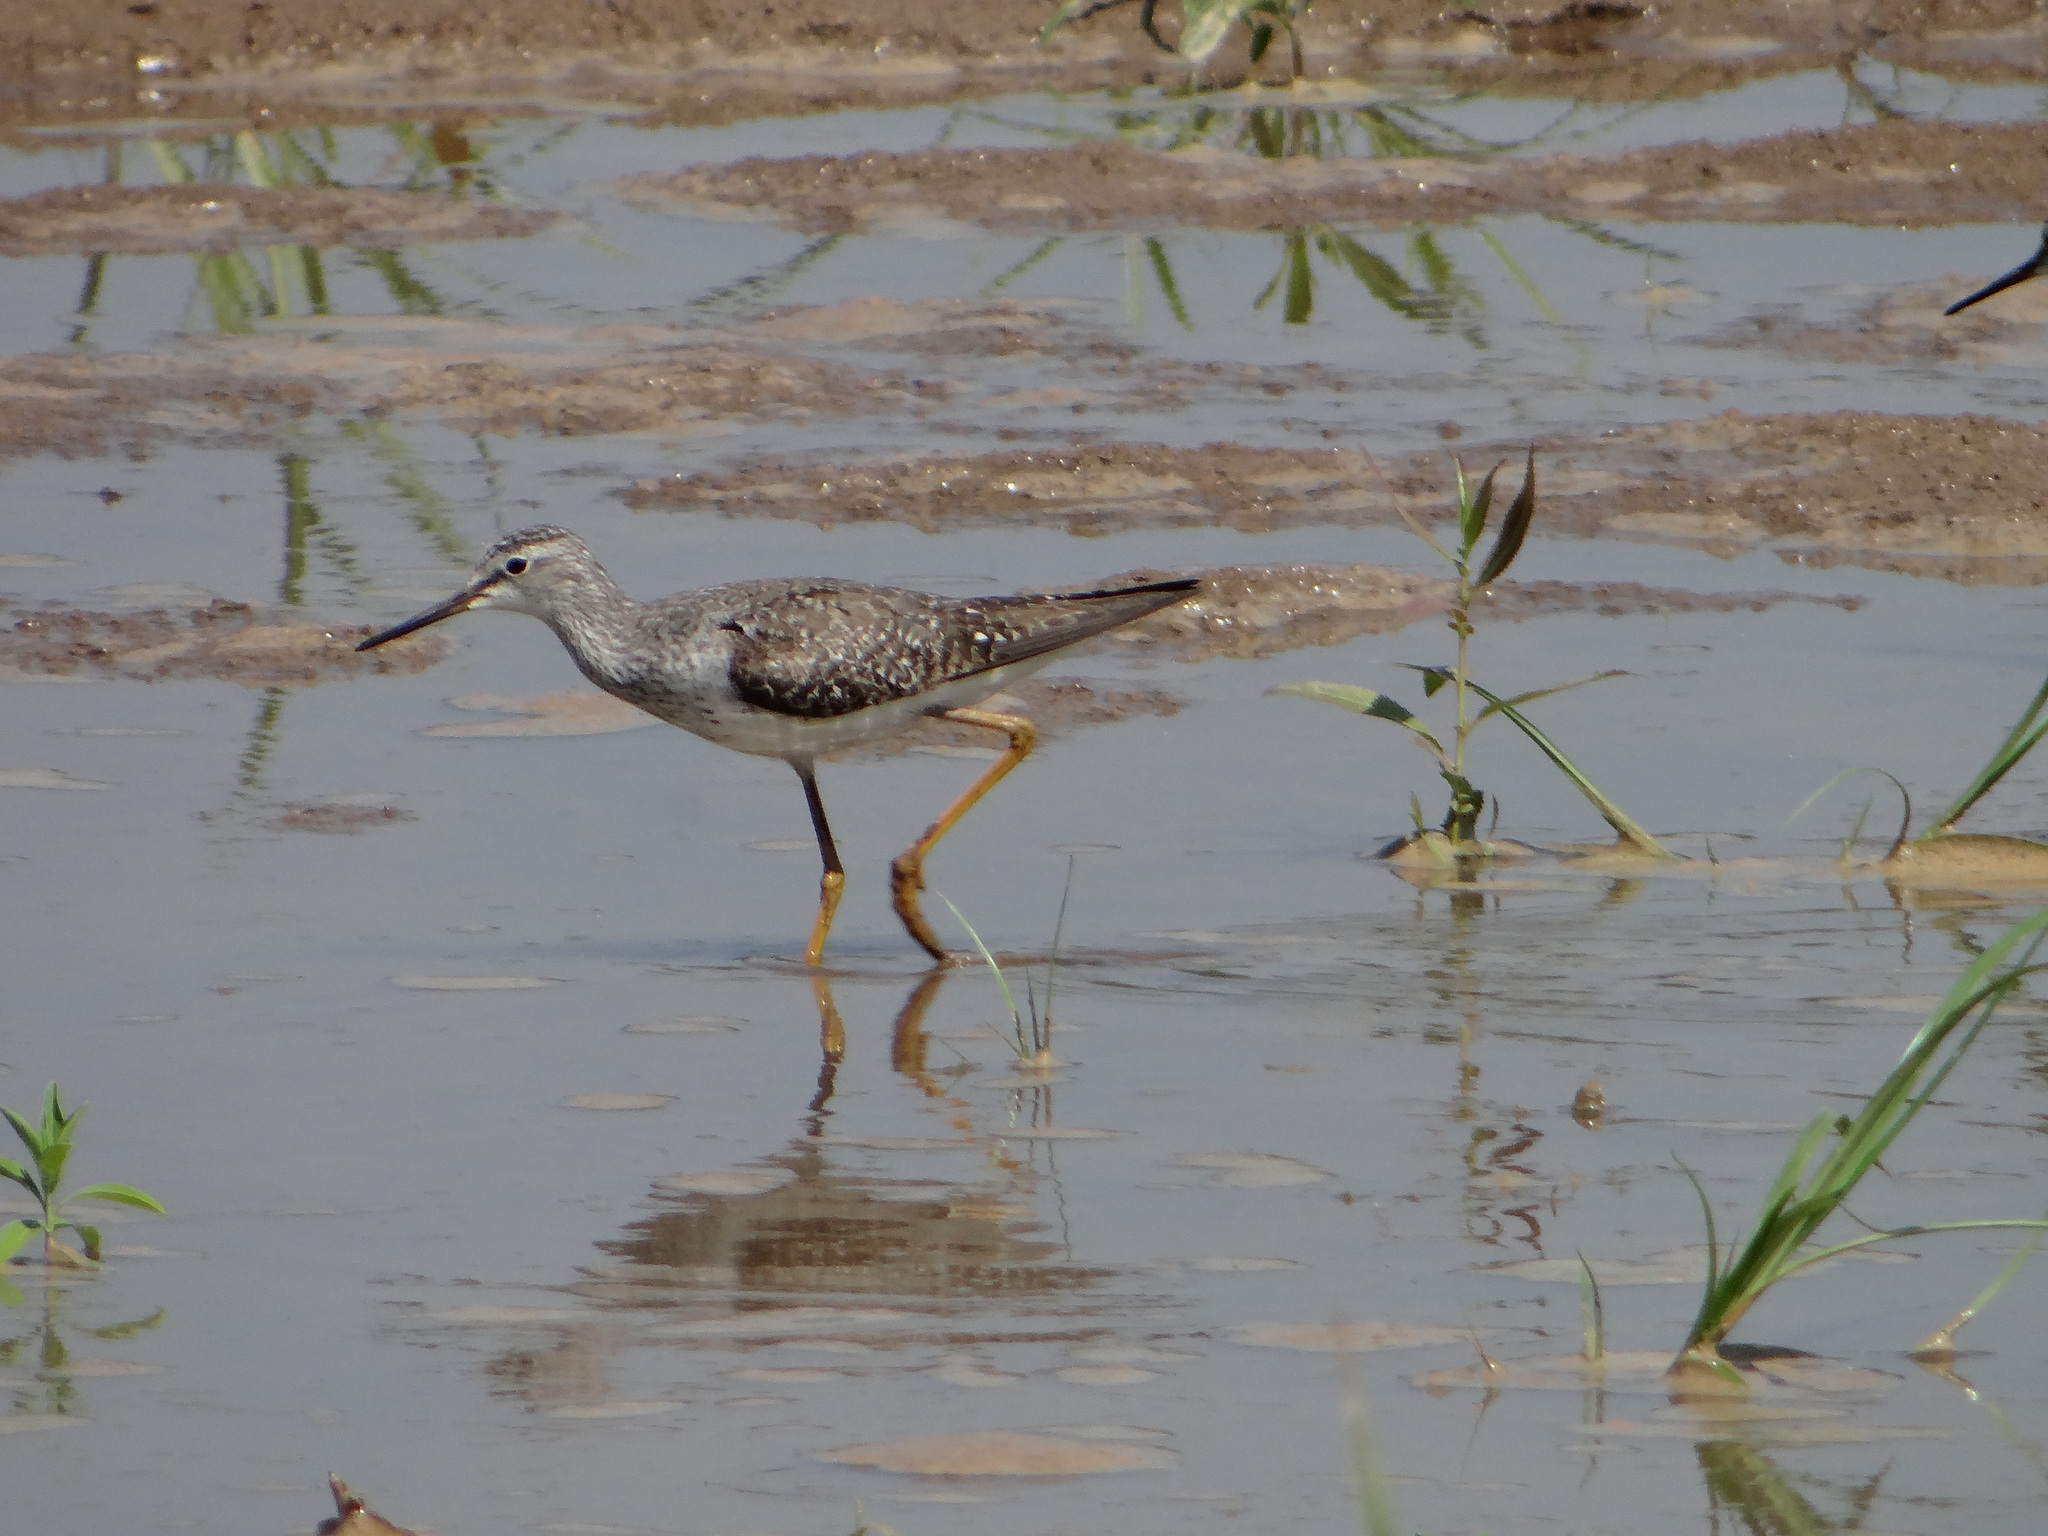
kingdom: Animalia
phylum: Chordata
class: Aves
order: Charadriiformes
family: Scolopacidae
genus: Tringa
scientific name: Tringa flavipes
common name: Lesser yellowlegs
